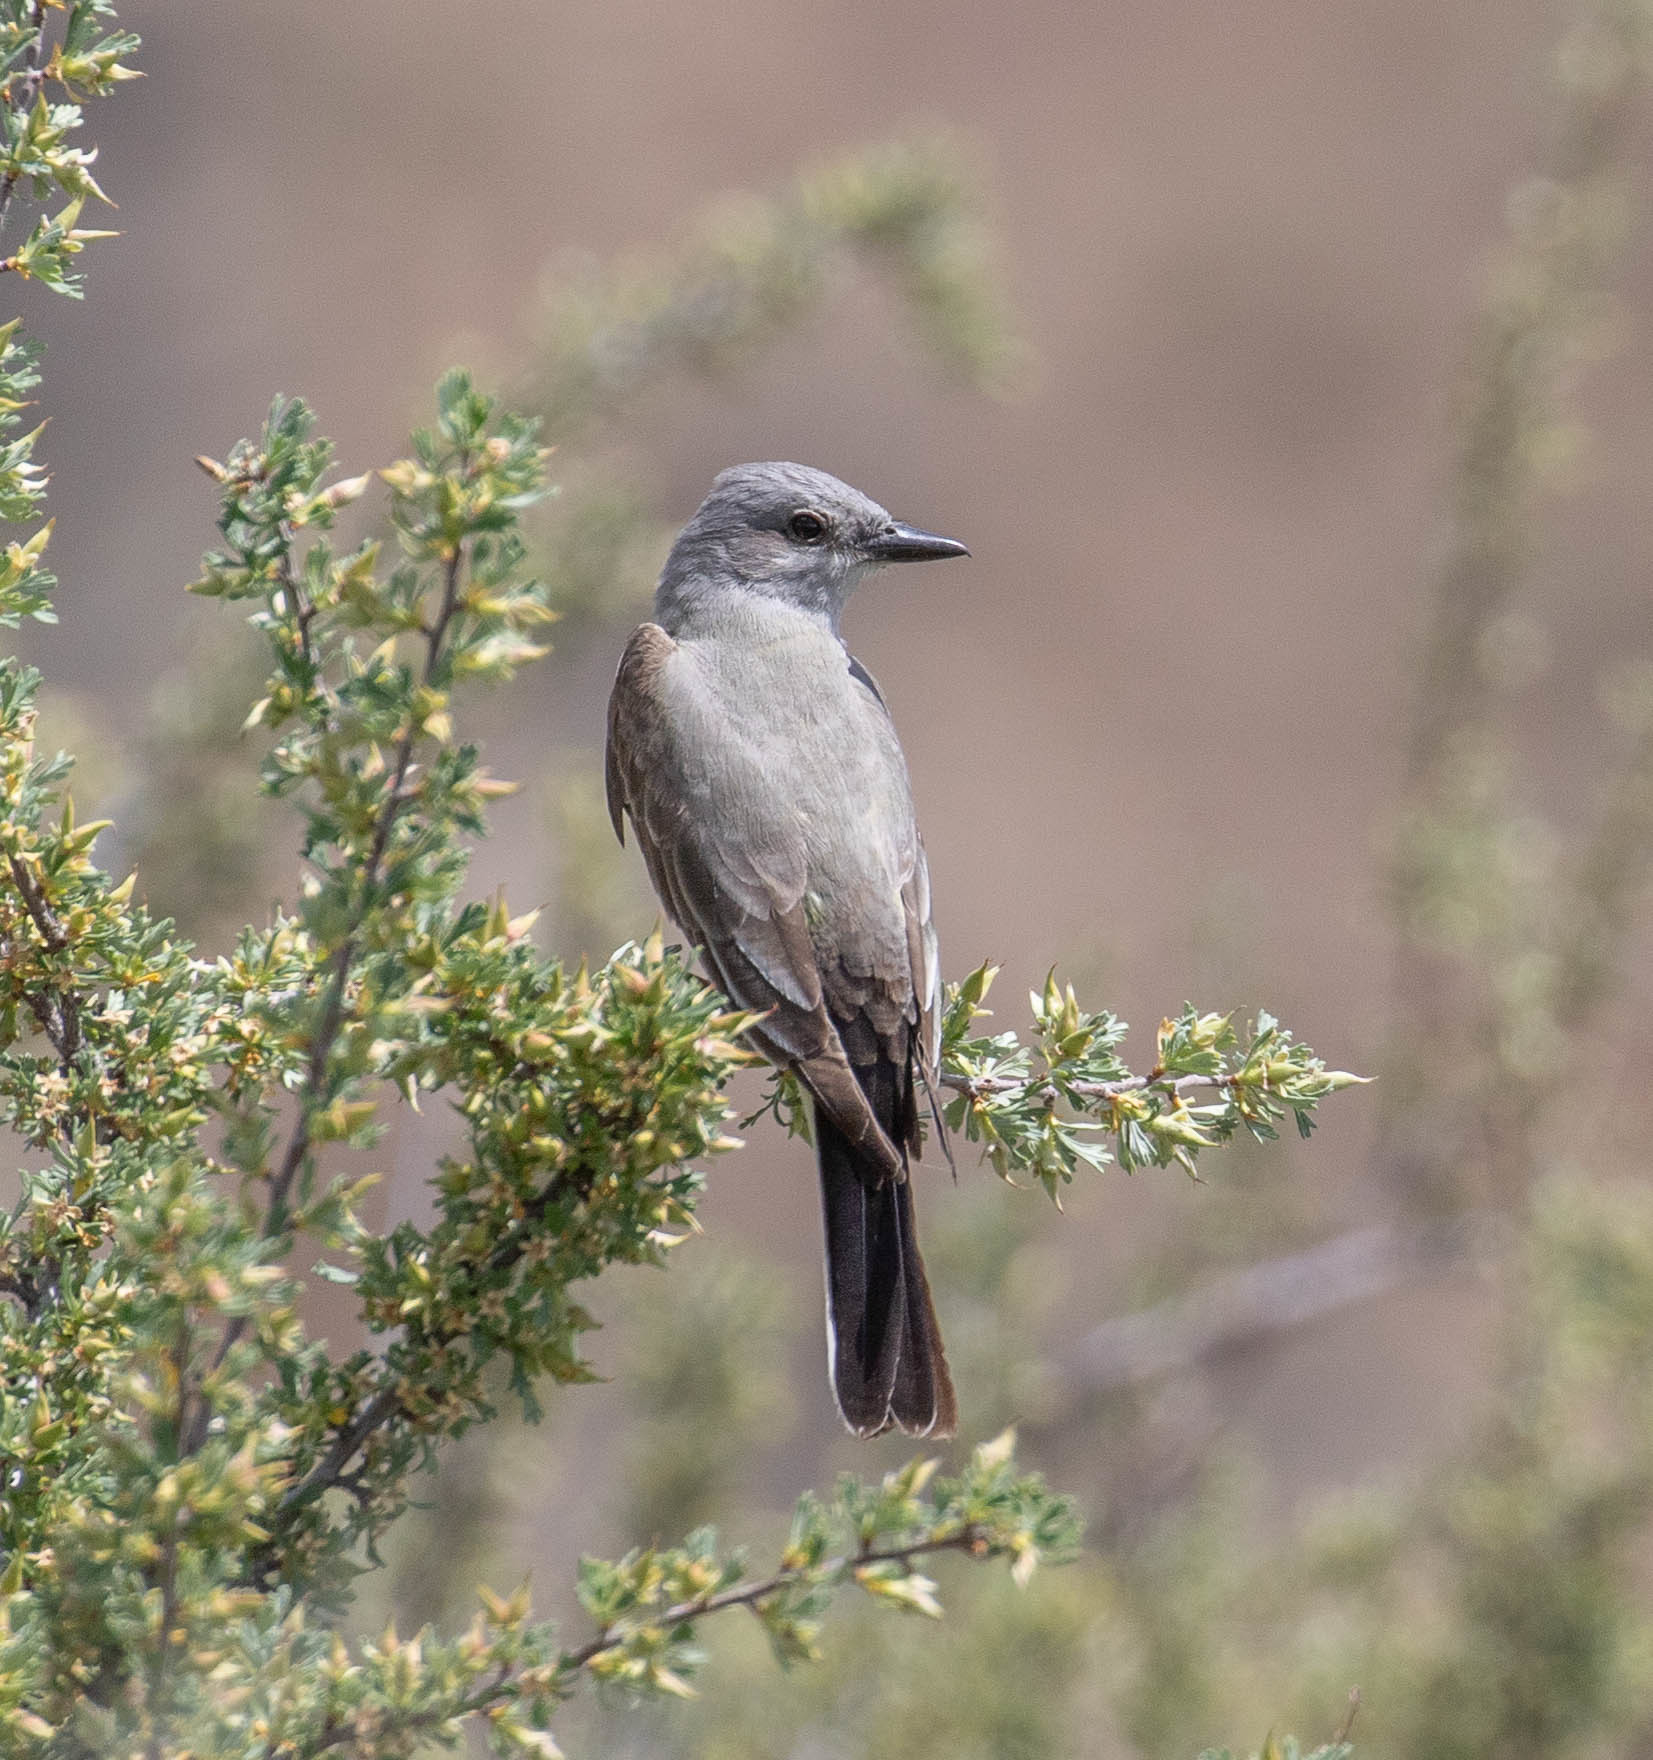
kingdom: Animalia
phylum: Chordata
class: Aves
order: Passeriformes
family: Tyrannidae
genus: Tyrannus
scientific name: Tyrannus verticalis
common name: Western kingbird
